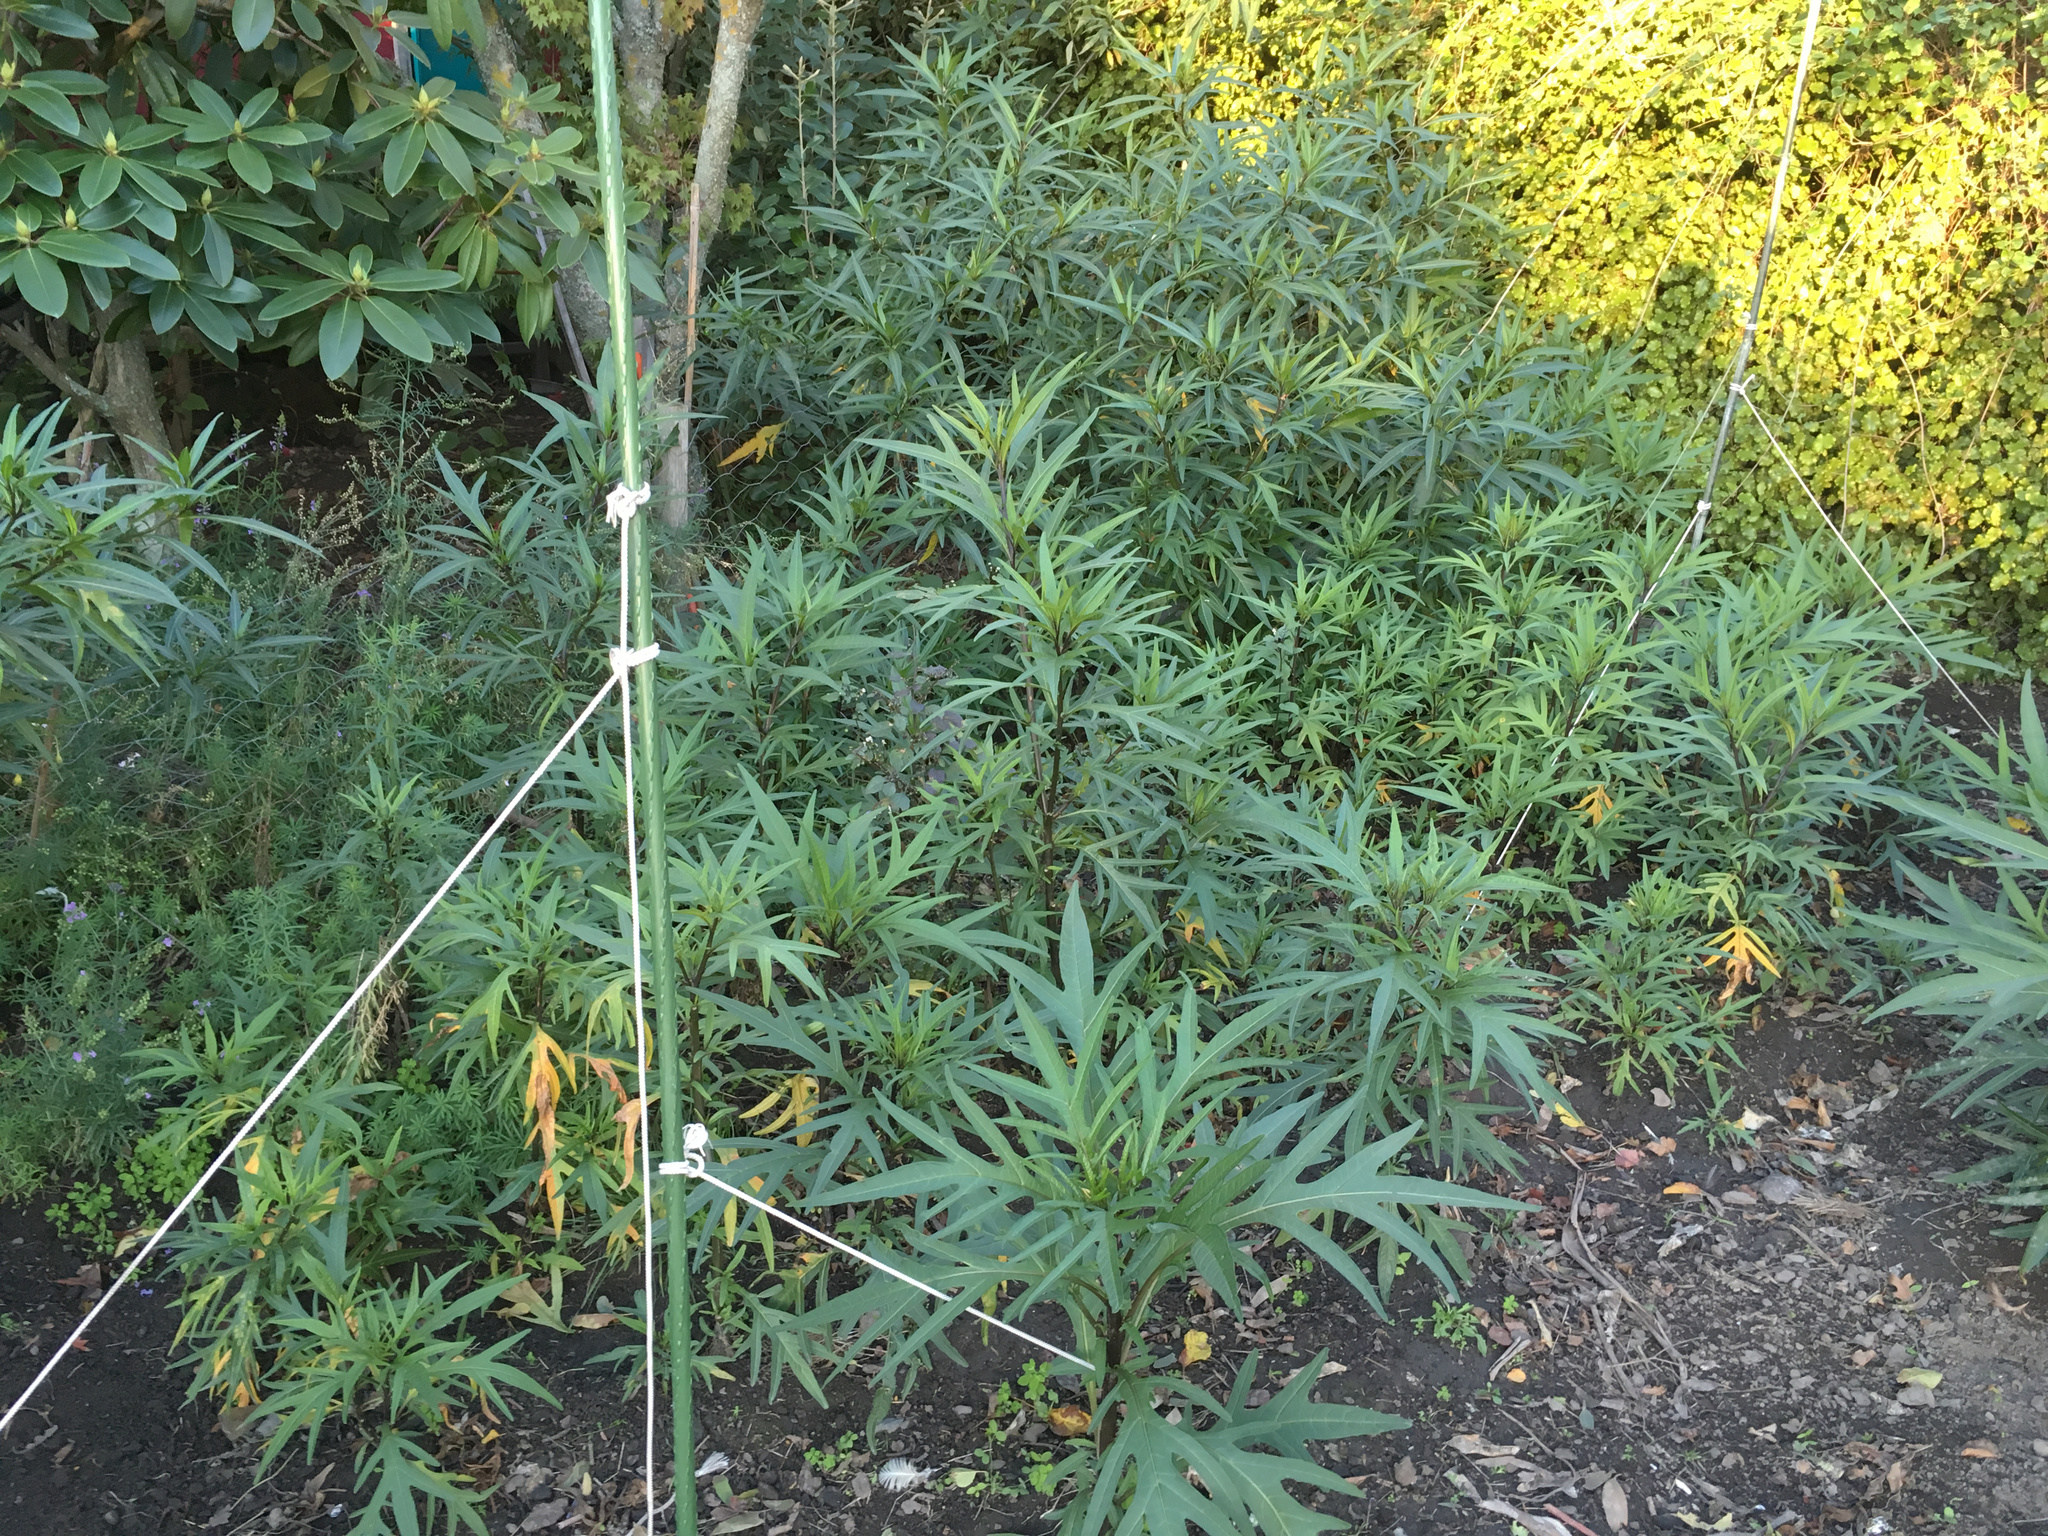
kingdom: Plantae
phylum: Tracheophyta
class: Magnoliopsida
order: Solanales
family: Solanaceae
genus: Solanum
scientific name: Solanum laciniatum
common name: Kangaroo-apple
